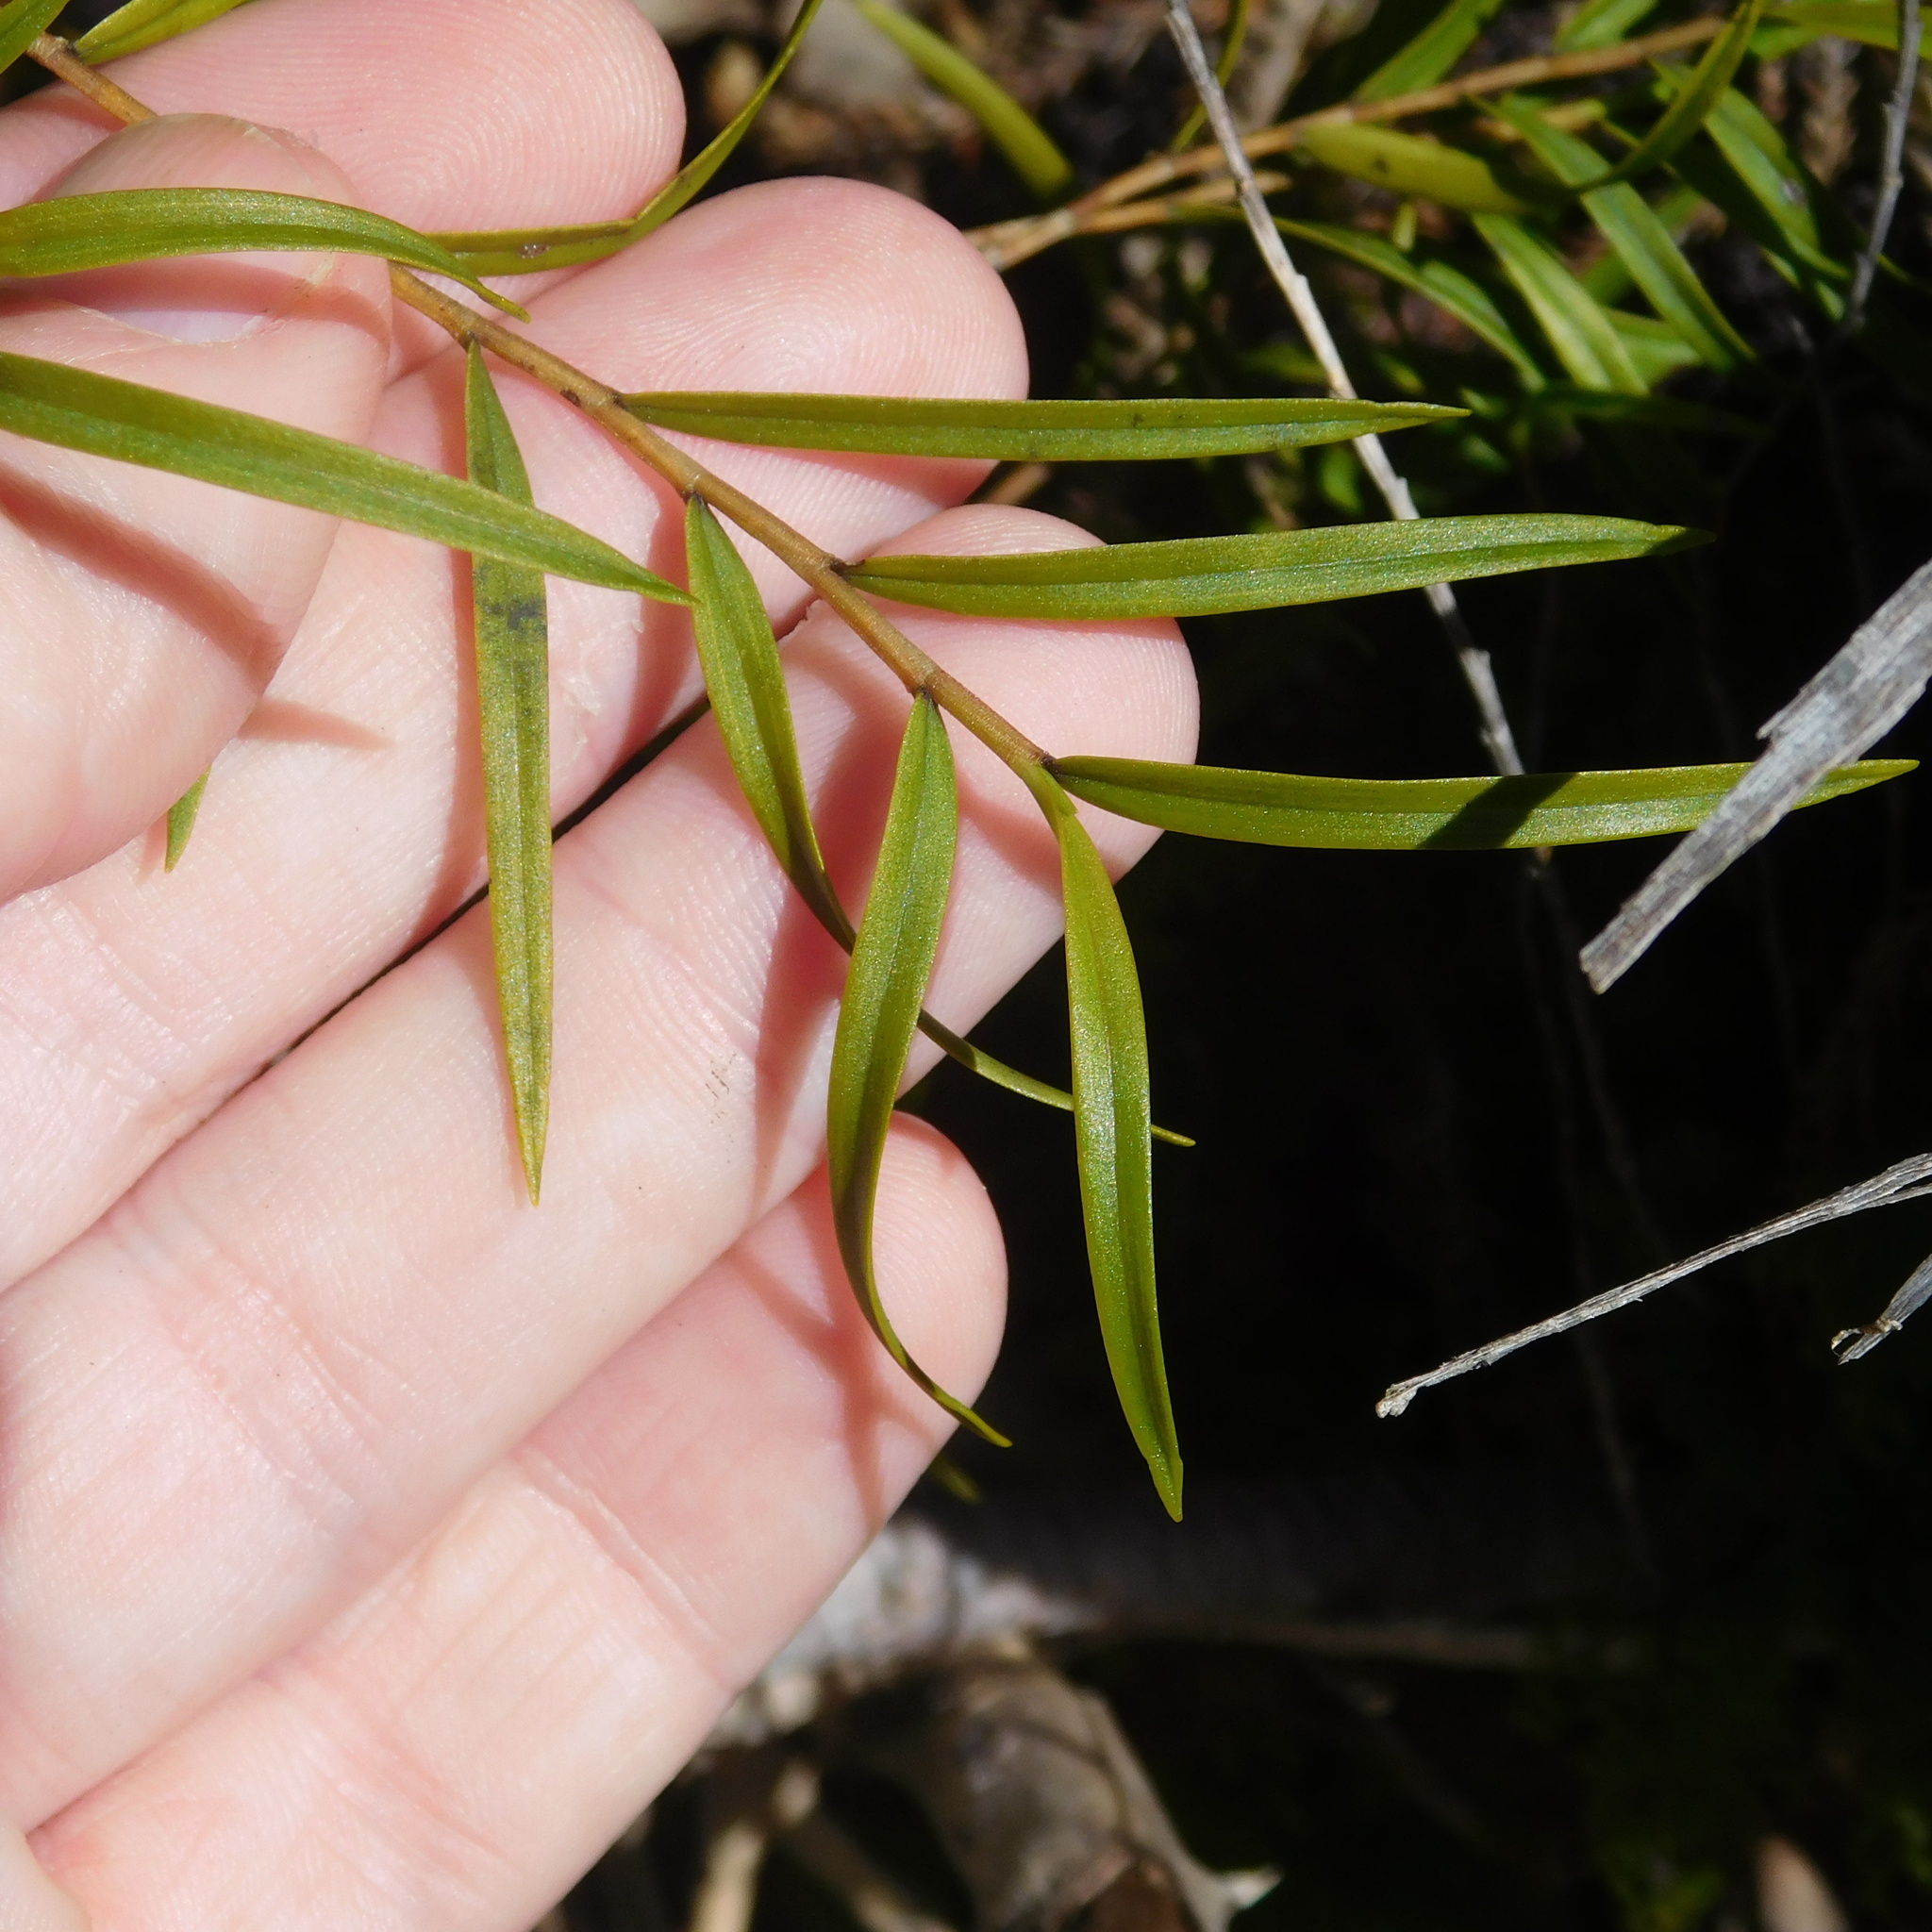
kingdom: Plantae
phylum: Tracheophyta
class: Liliopsida
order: Asparagales
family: Orchidaceae
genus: Dendrobium
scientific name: Dendrobium cunninghamii
